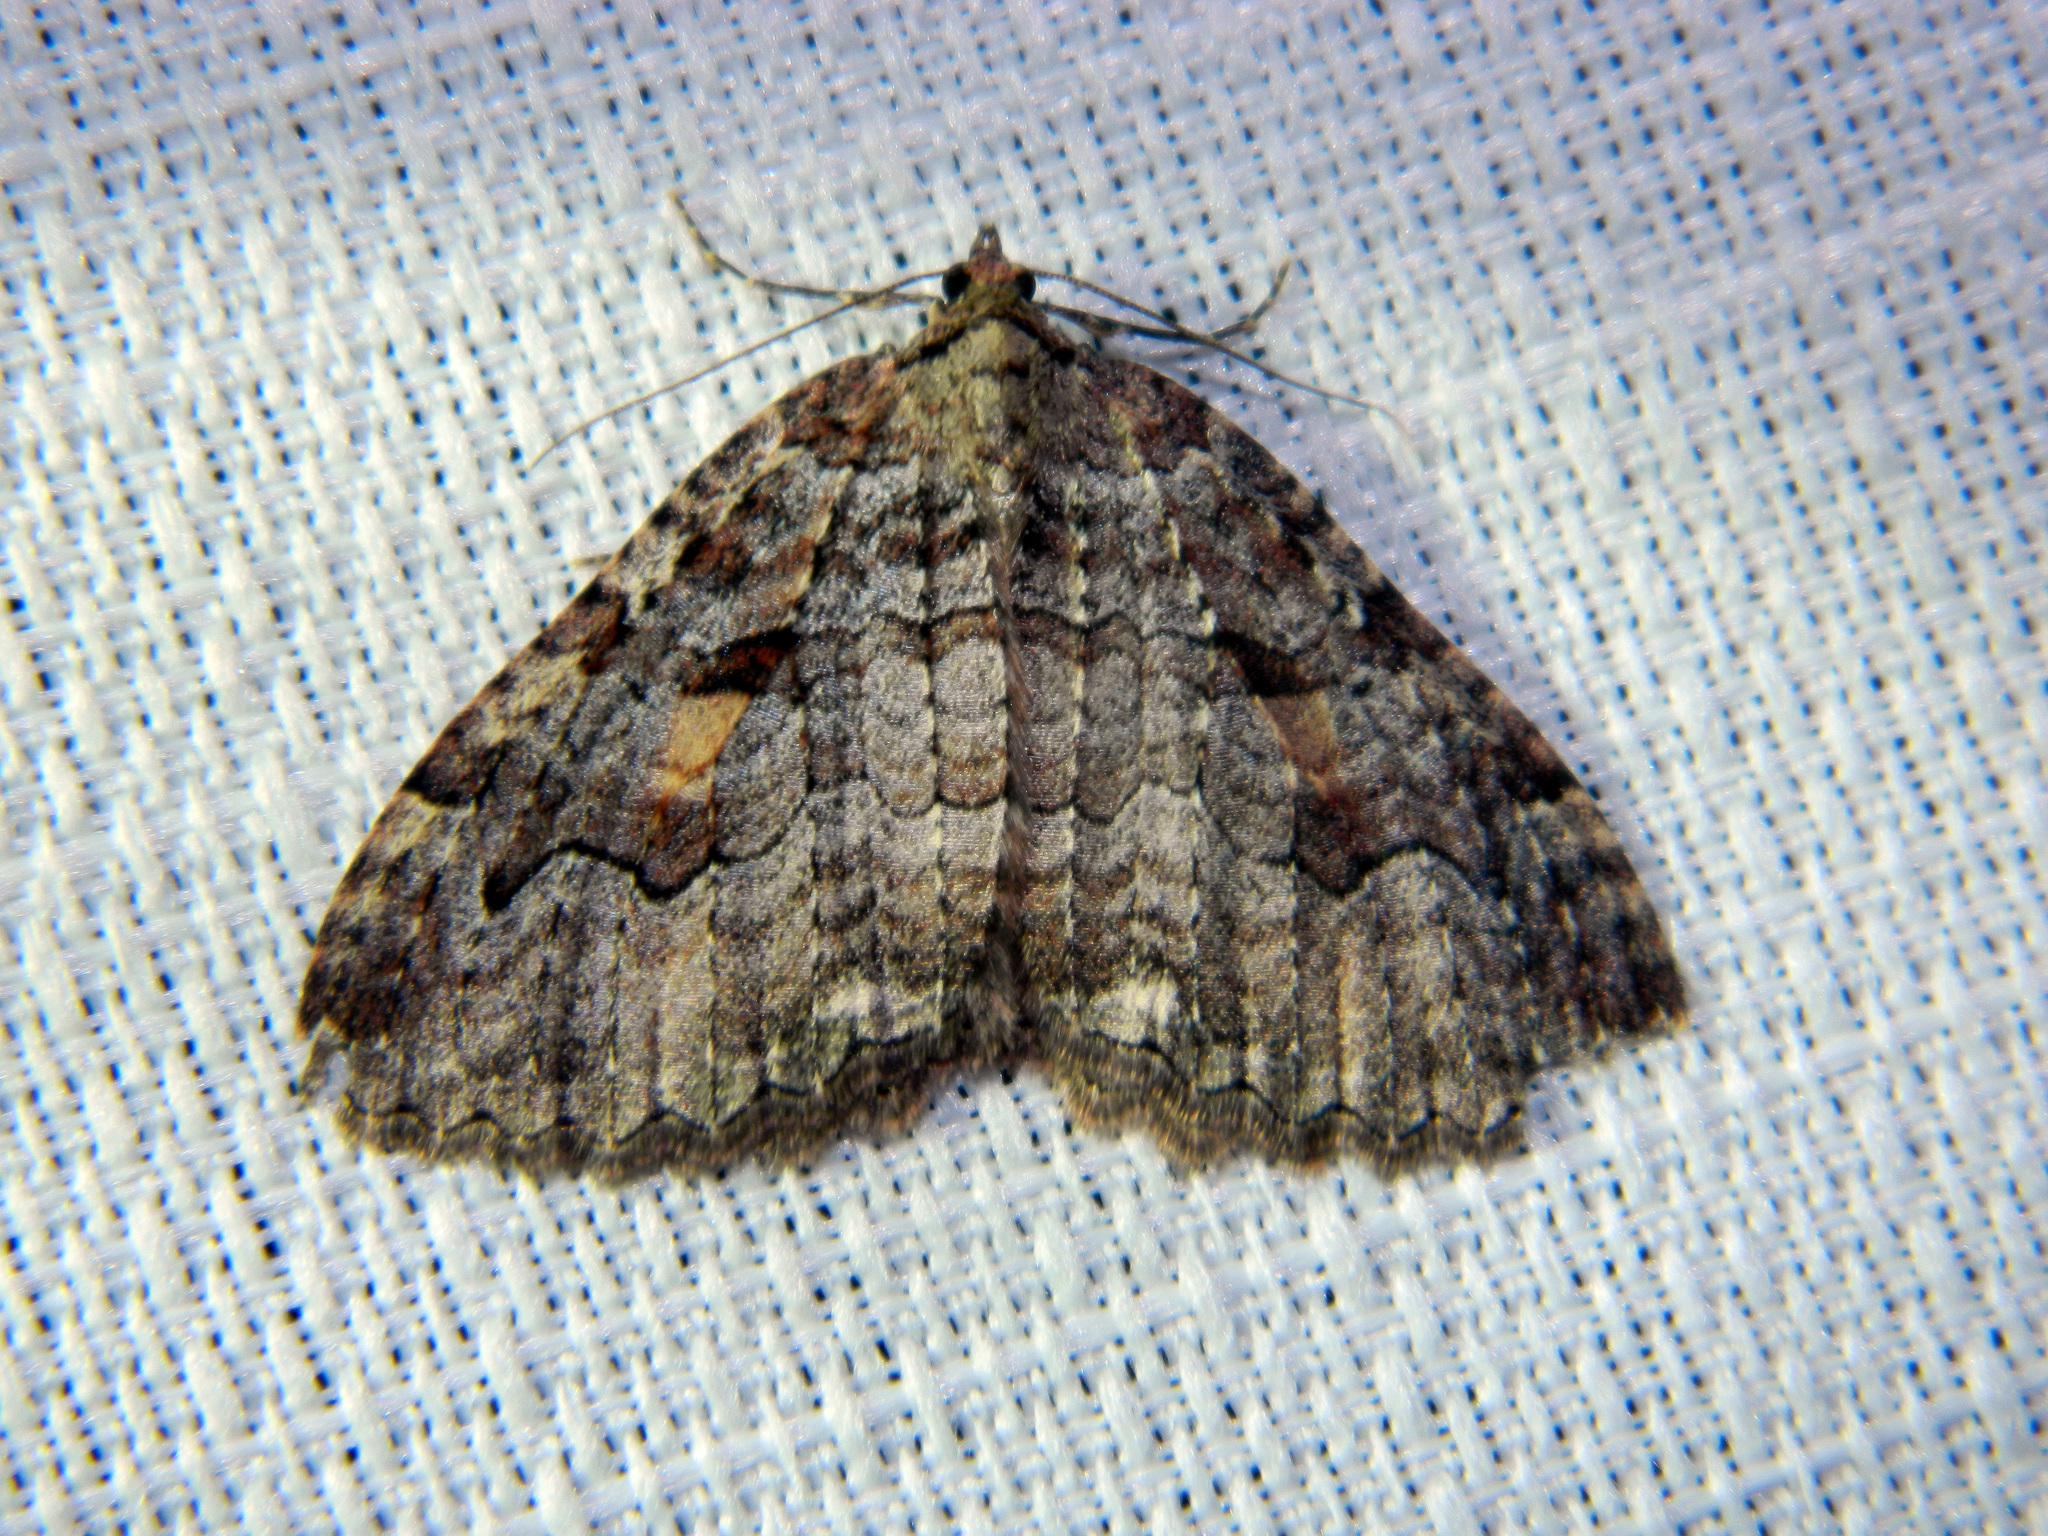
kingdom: Animalia
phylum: Arthropoda
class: Insecta
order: Lepidoptera
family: Geometridae
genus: Triphosa
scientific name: Triphosa haesitata
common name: Tissue moth
